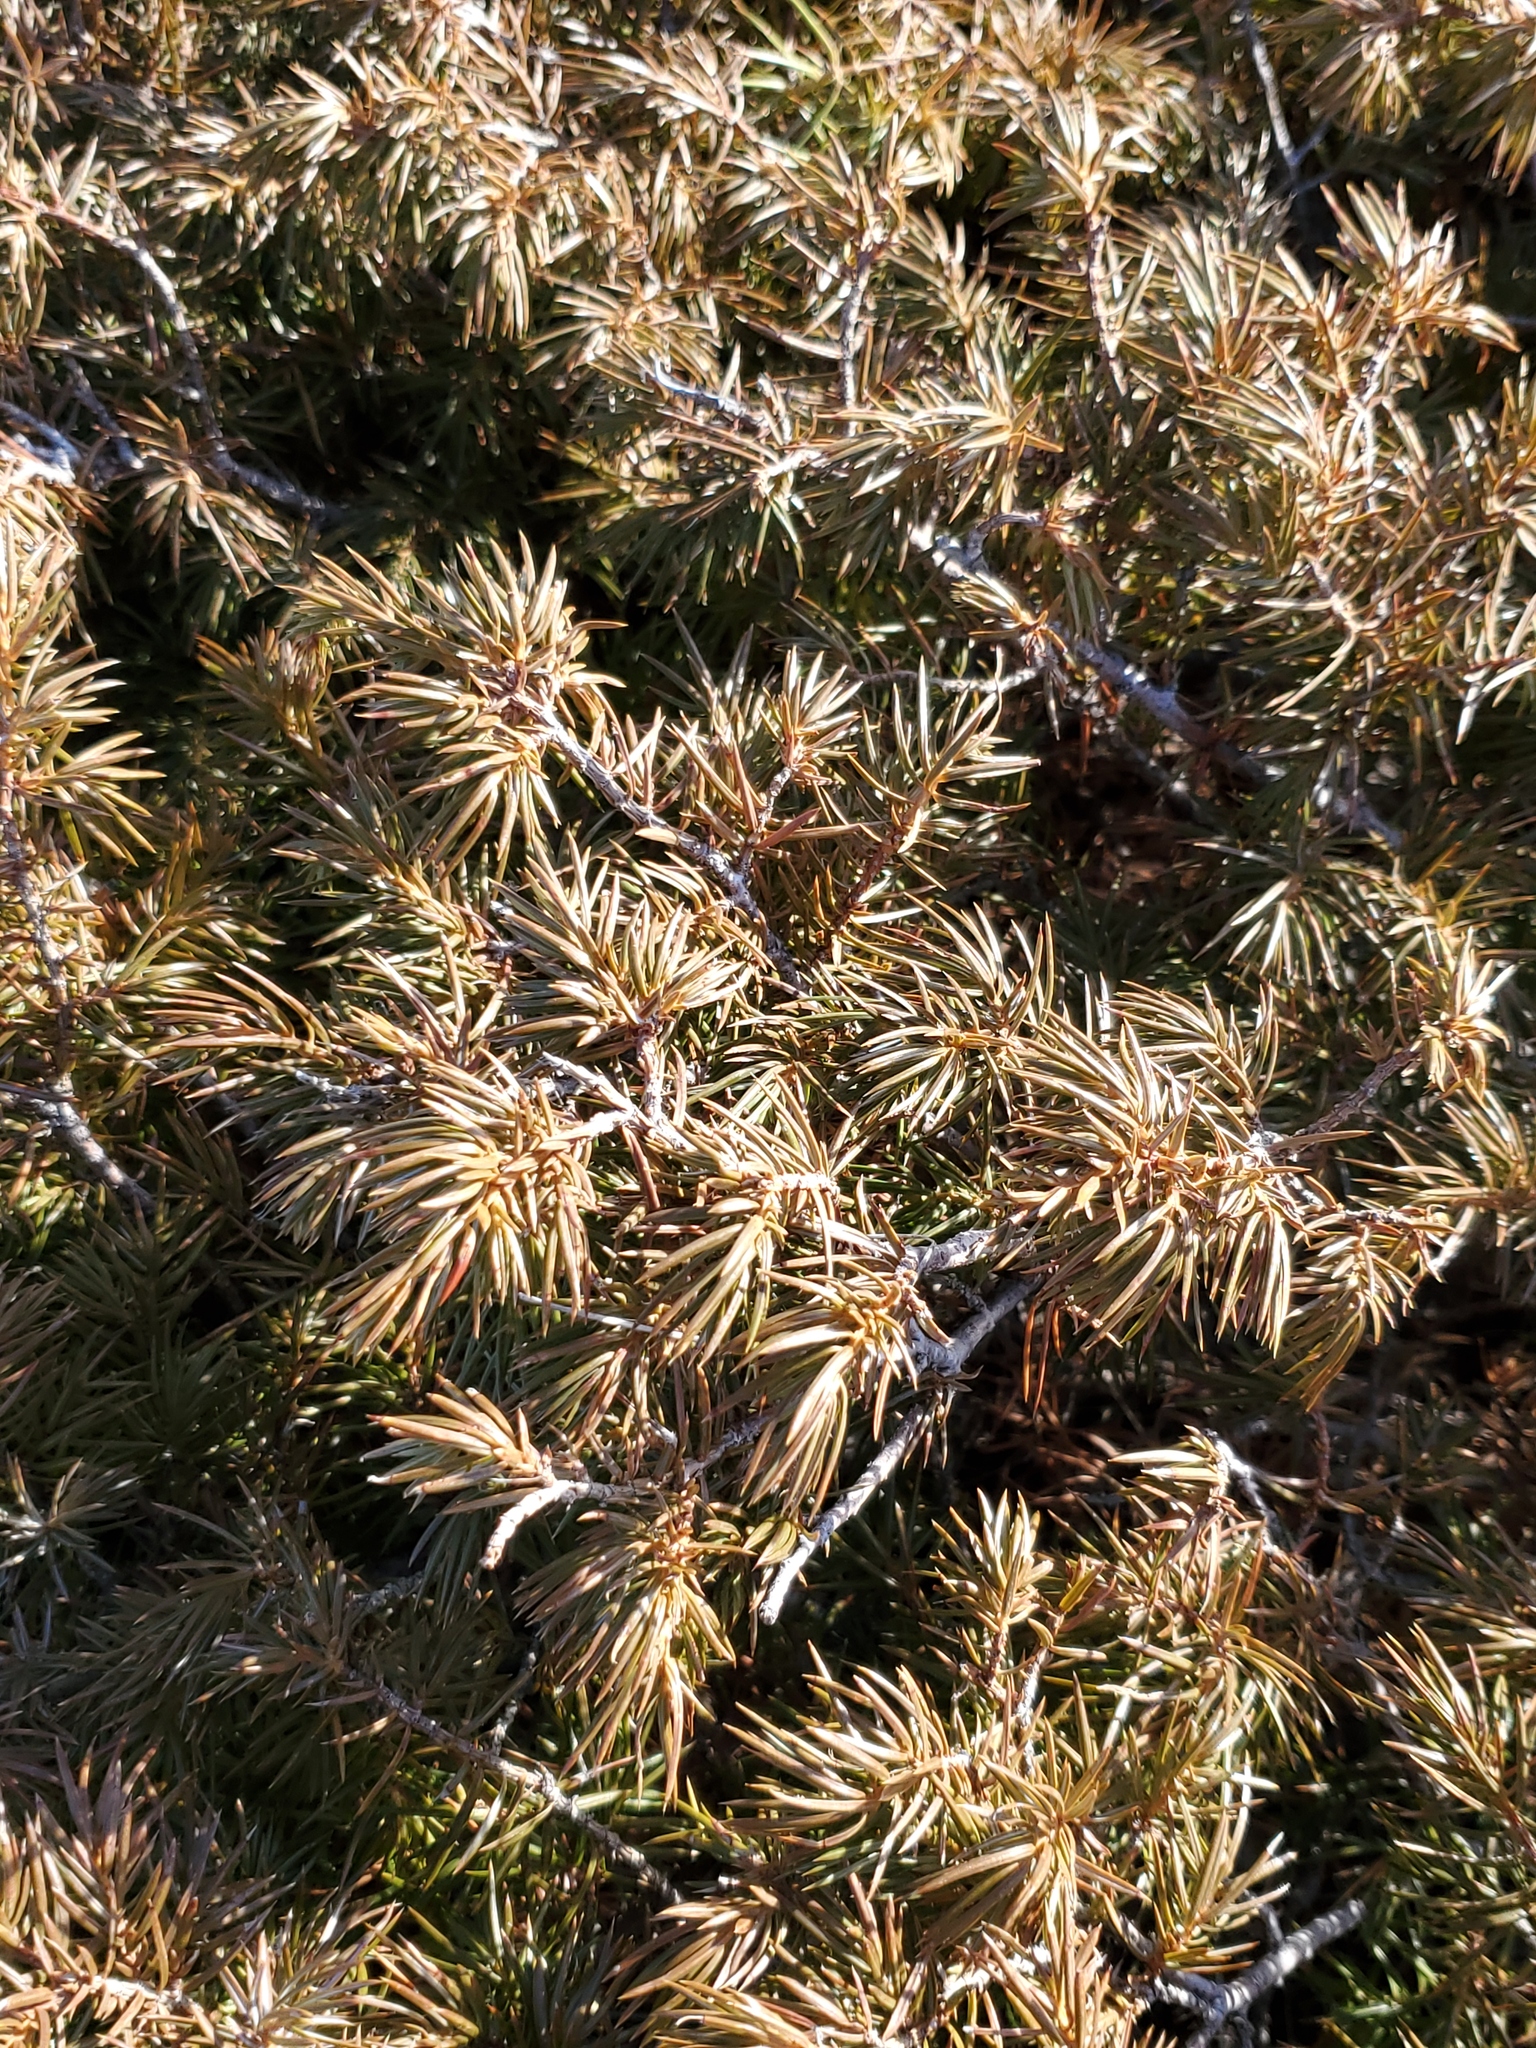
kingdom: Plantae
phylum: Tracheophyta
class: Pinopsida
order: Pinales
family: Cupressaceae
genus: Juniperus
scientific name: Juniperus communis
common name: Common juniper
